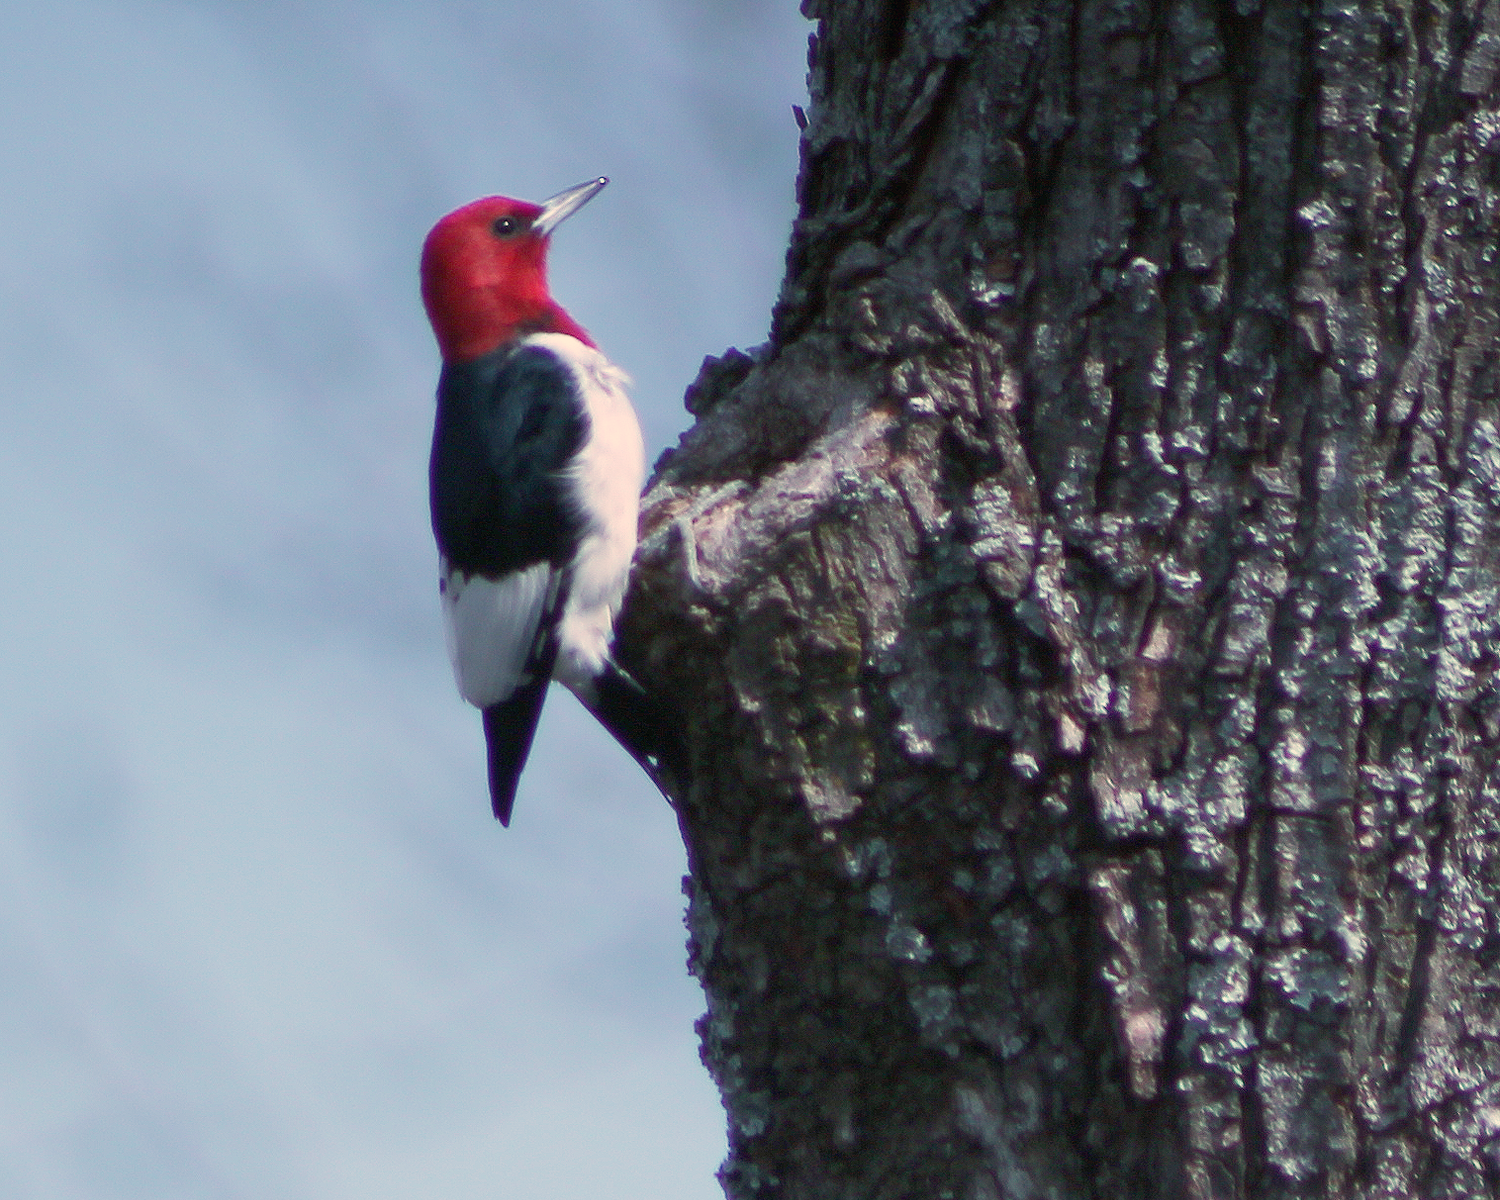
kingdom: Animalia
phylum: Chordata
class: Aves
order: Piciformes
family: Picidae
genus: Melanerpes
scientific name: Melanerpes erythrocephalus
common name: Red-headed woodpecker
